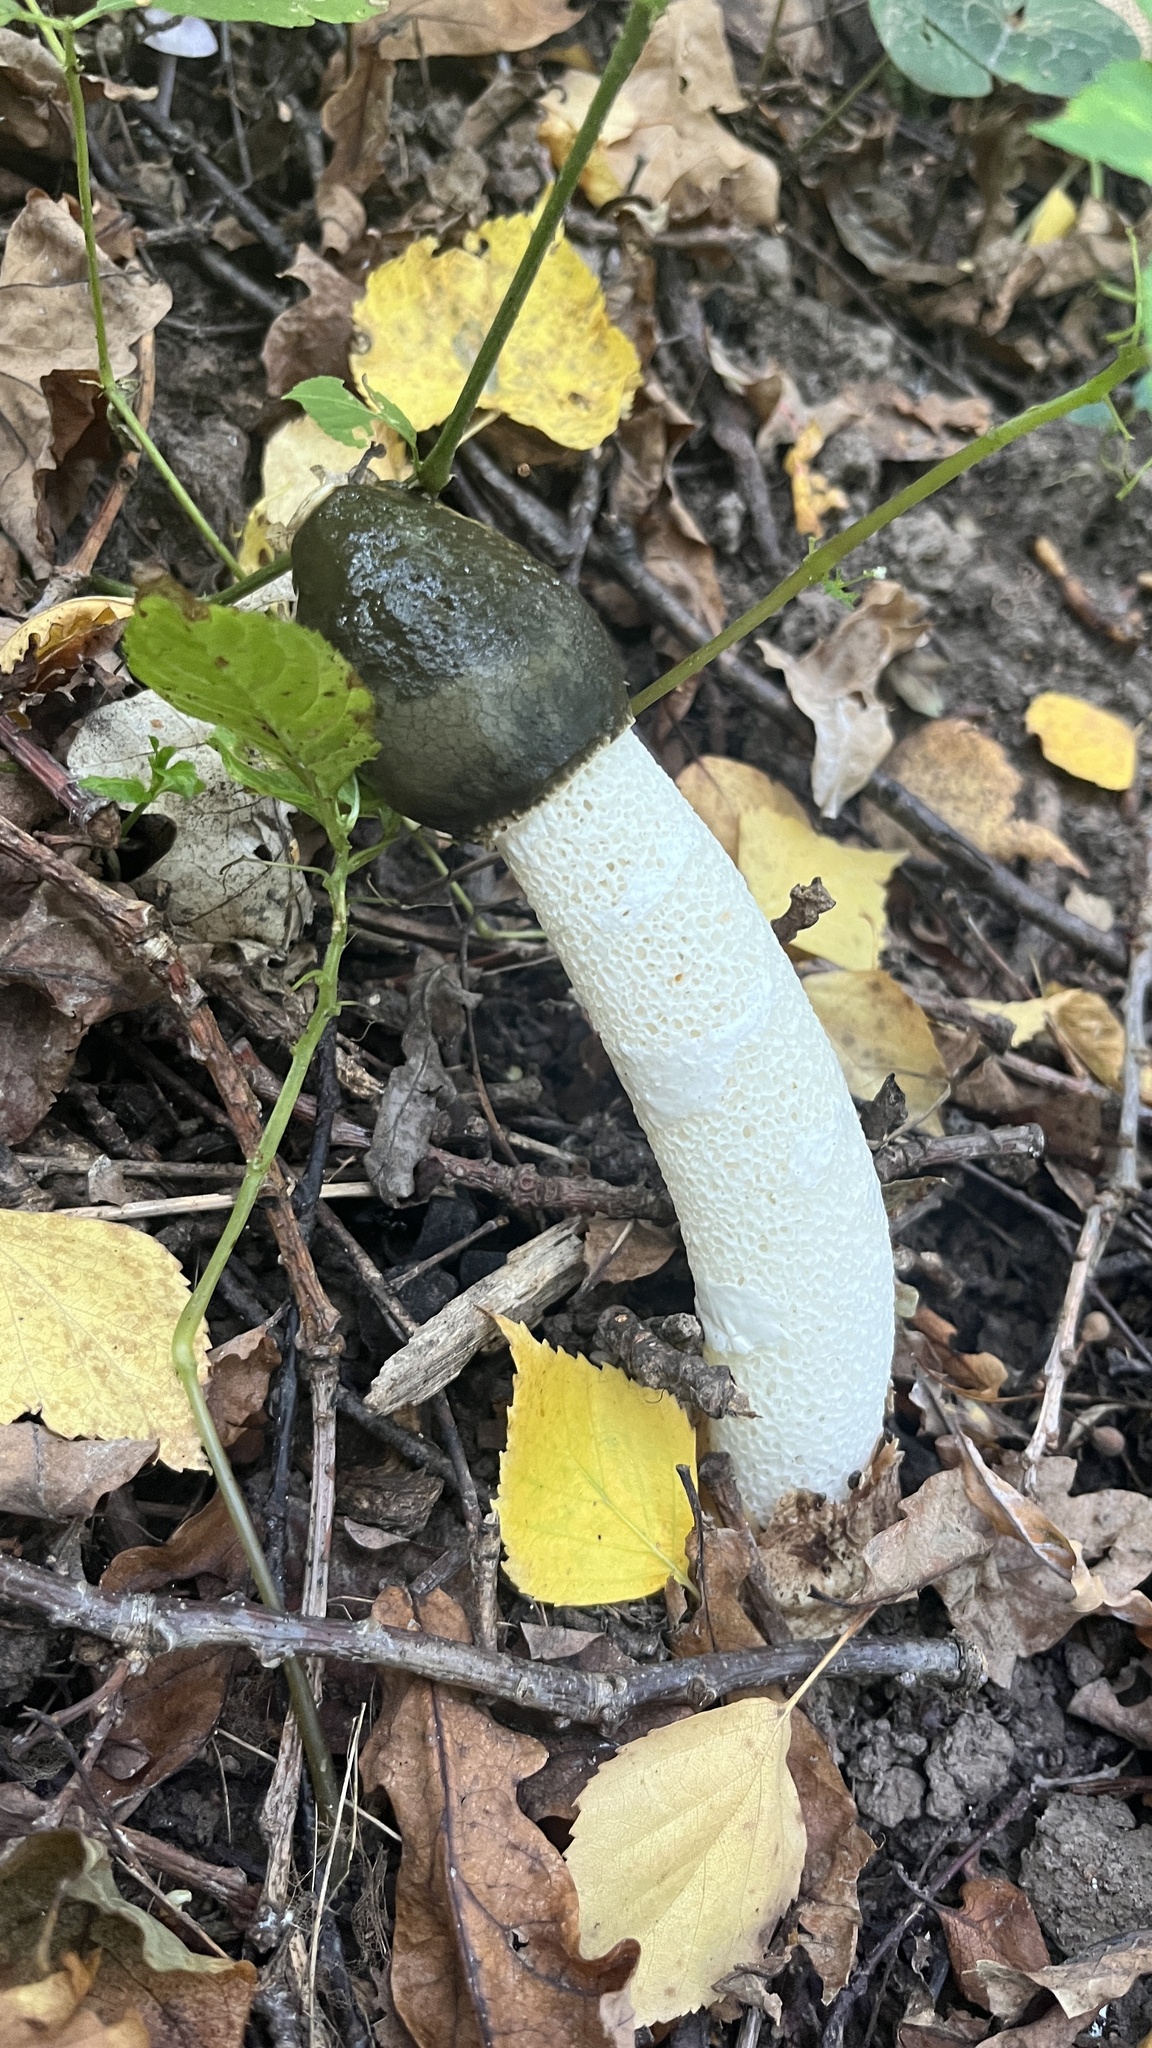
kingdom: Fungi
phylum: Basidiomycota
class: Agaricomycetes
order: Phallales
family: Phallaceae
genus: Phallus
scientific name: Phallus impudicus
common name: Common stinkhorn
